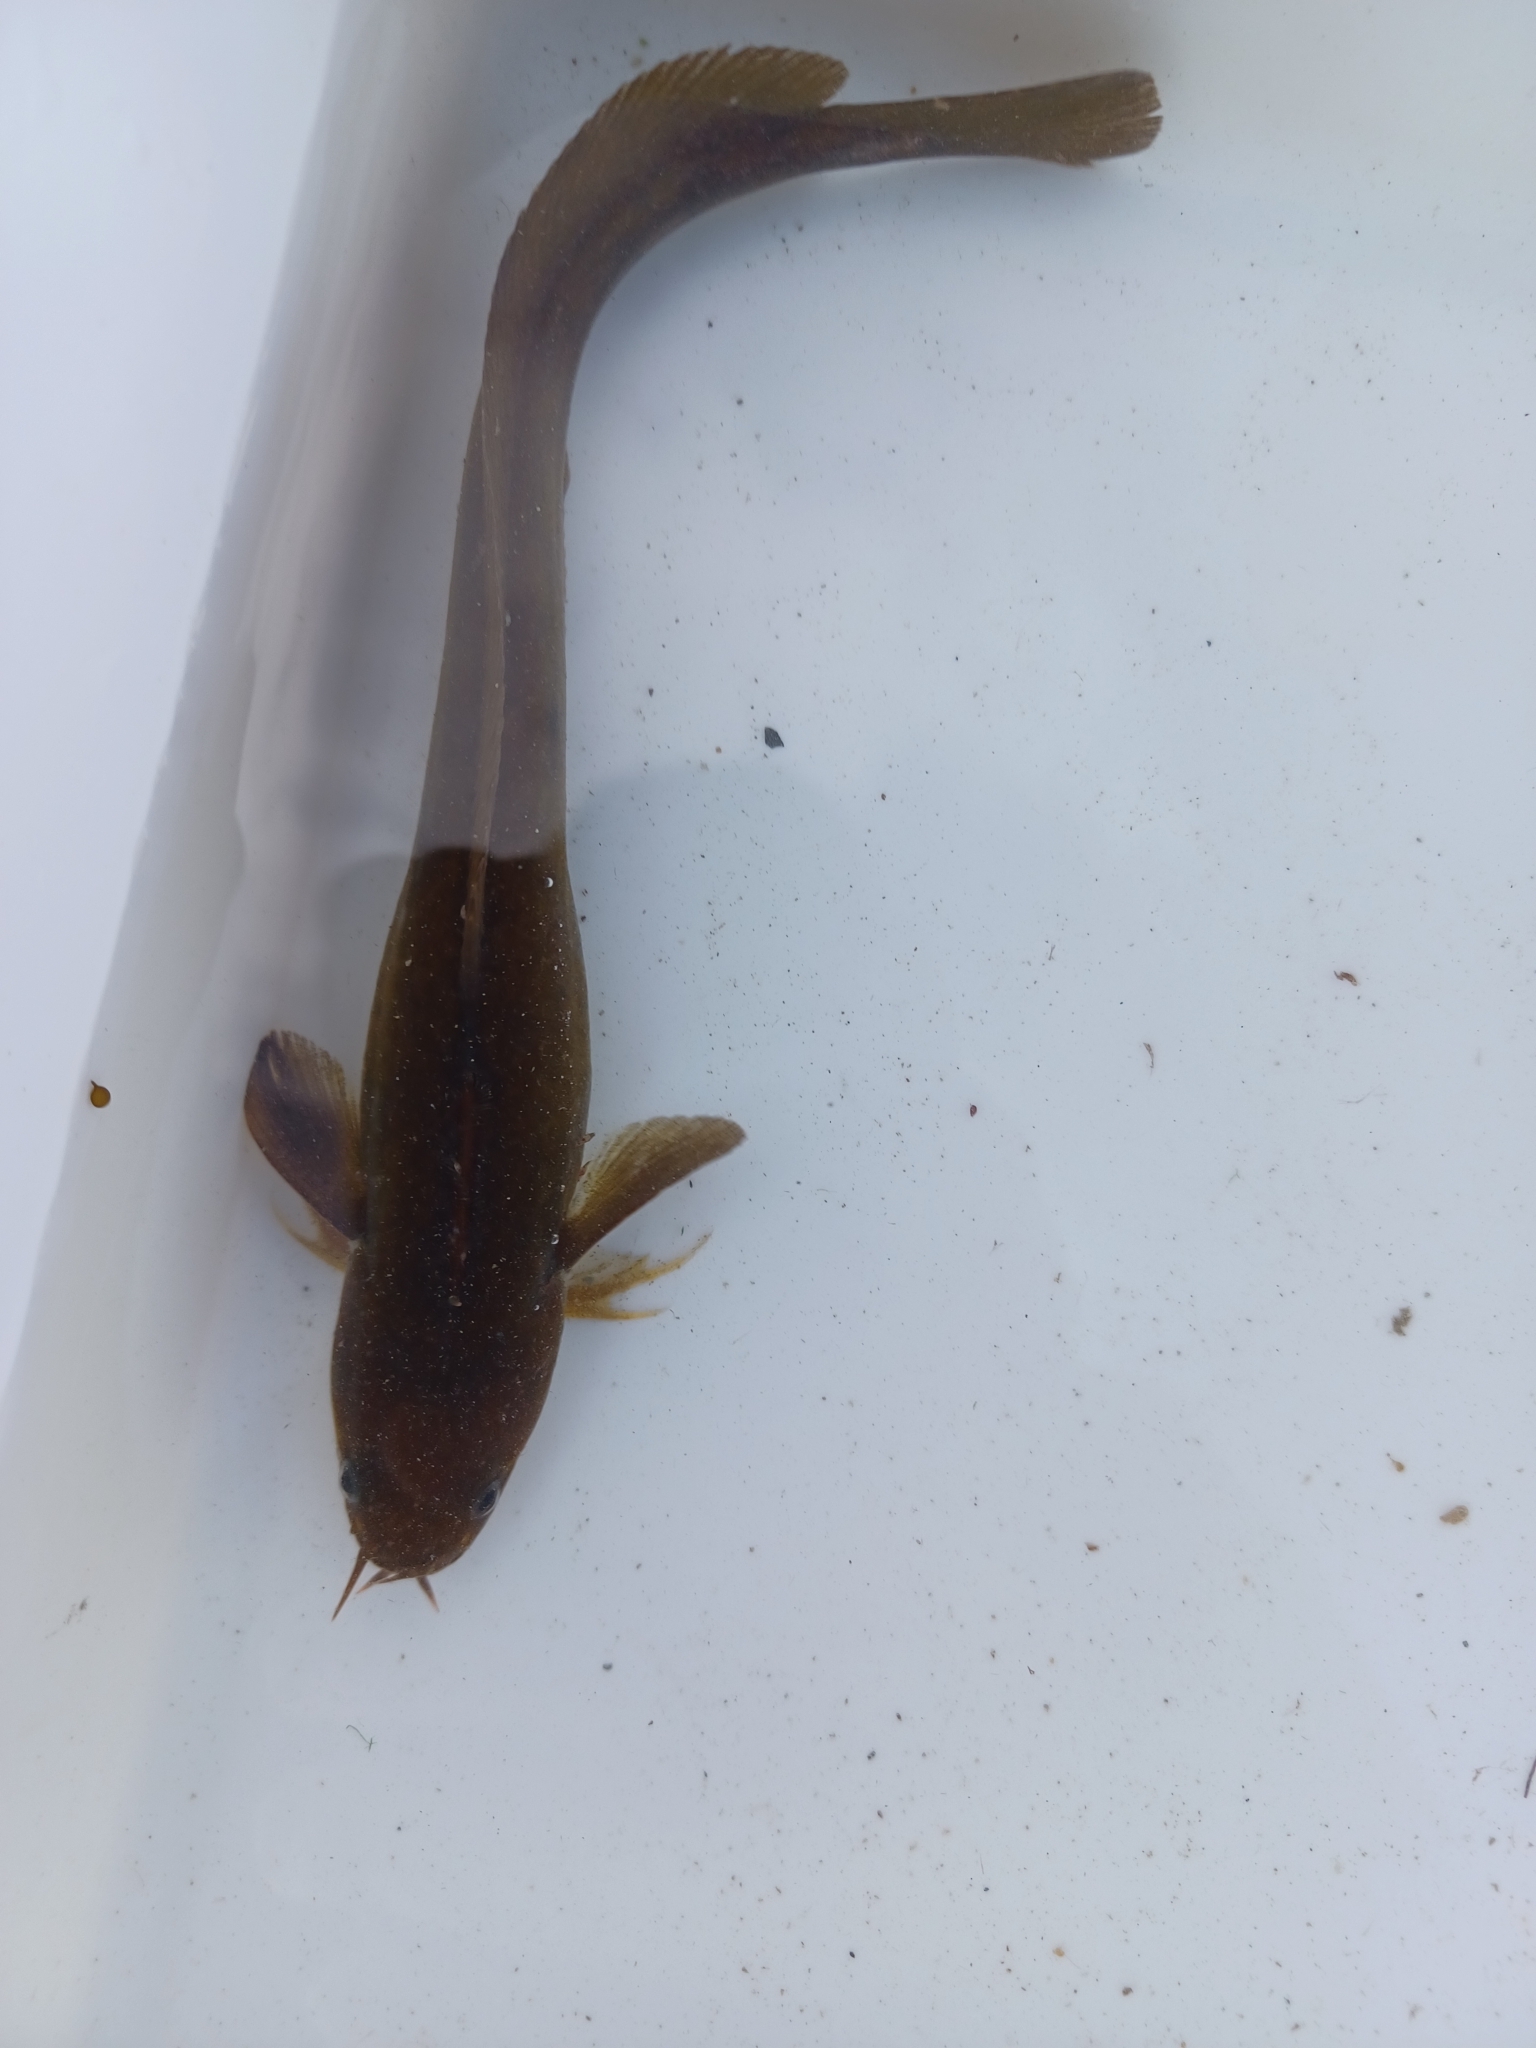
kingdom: Animalia
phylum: Chordata
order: Gadiformes
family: Lotidae
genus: Ciliata
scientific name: Ciliata mustela
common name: Five-bearded rockling
